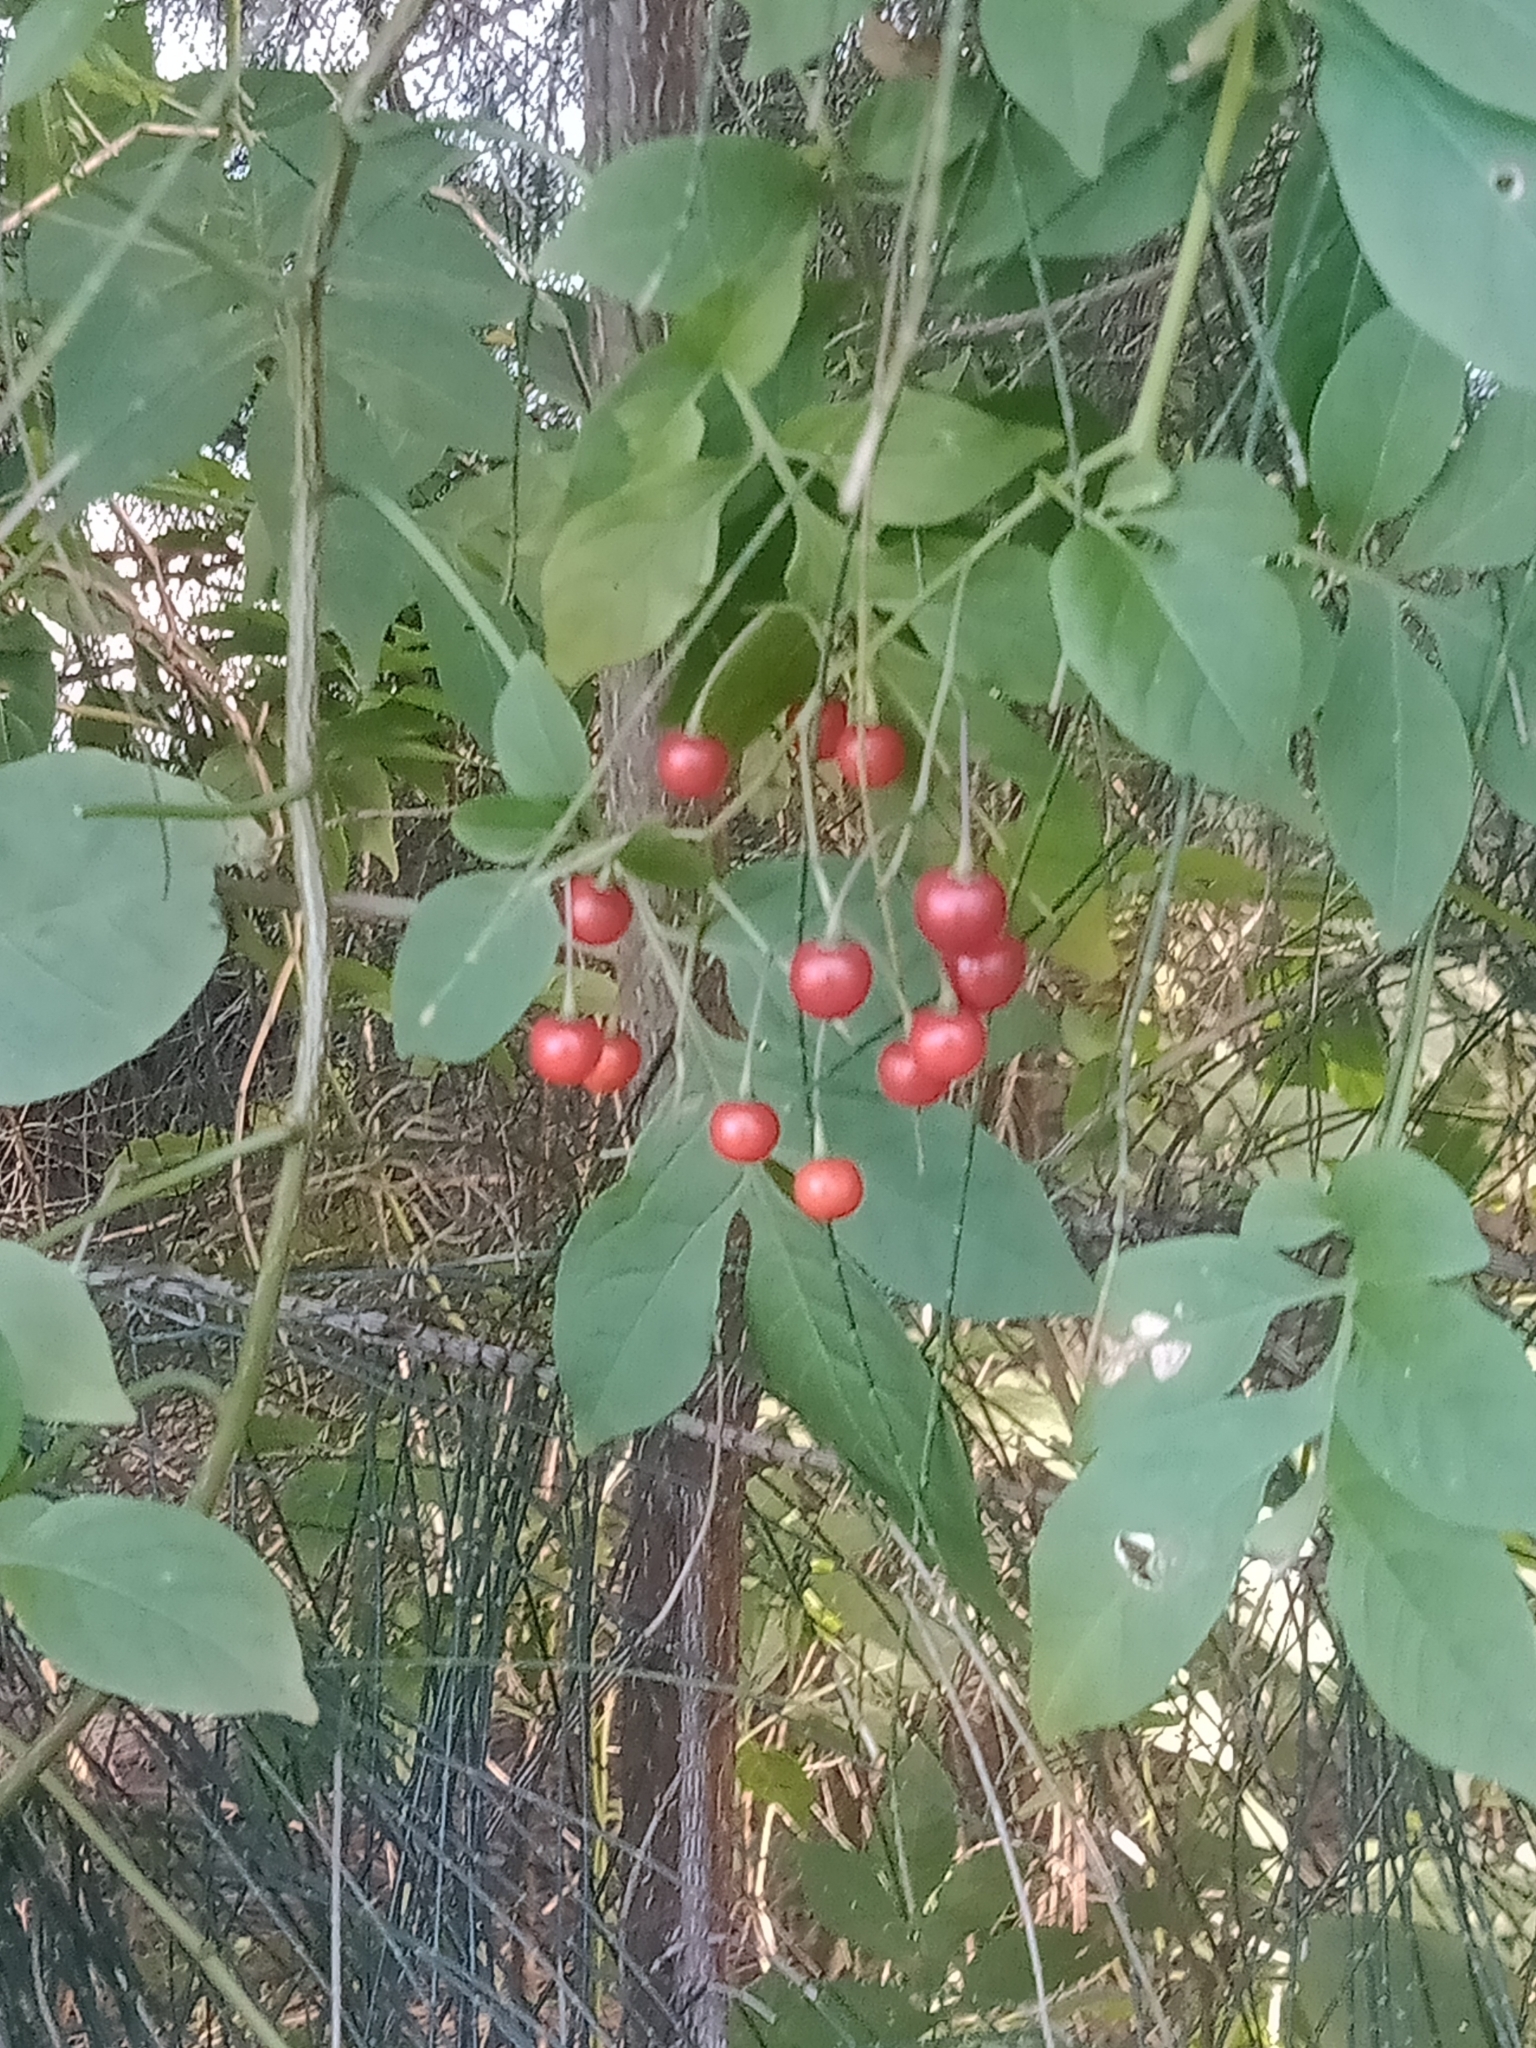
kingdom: Plantae
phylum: Tracheophyta
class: Magnoliopsida
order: Solanales
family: Solanaceae
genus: Solanum
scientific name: Solanum seaforthianum
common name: Brazilian nightshade
